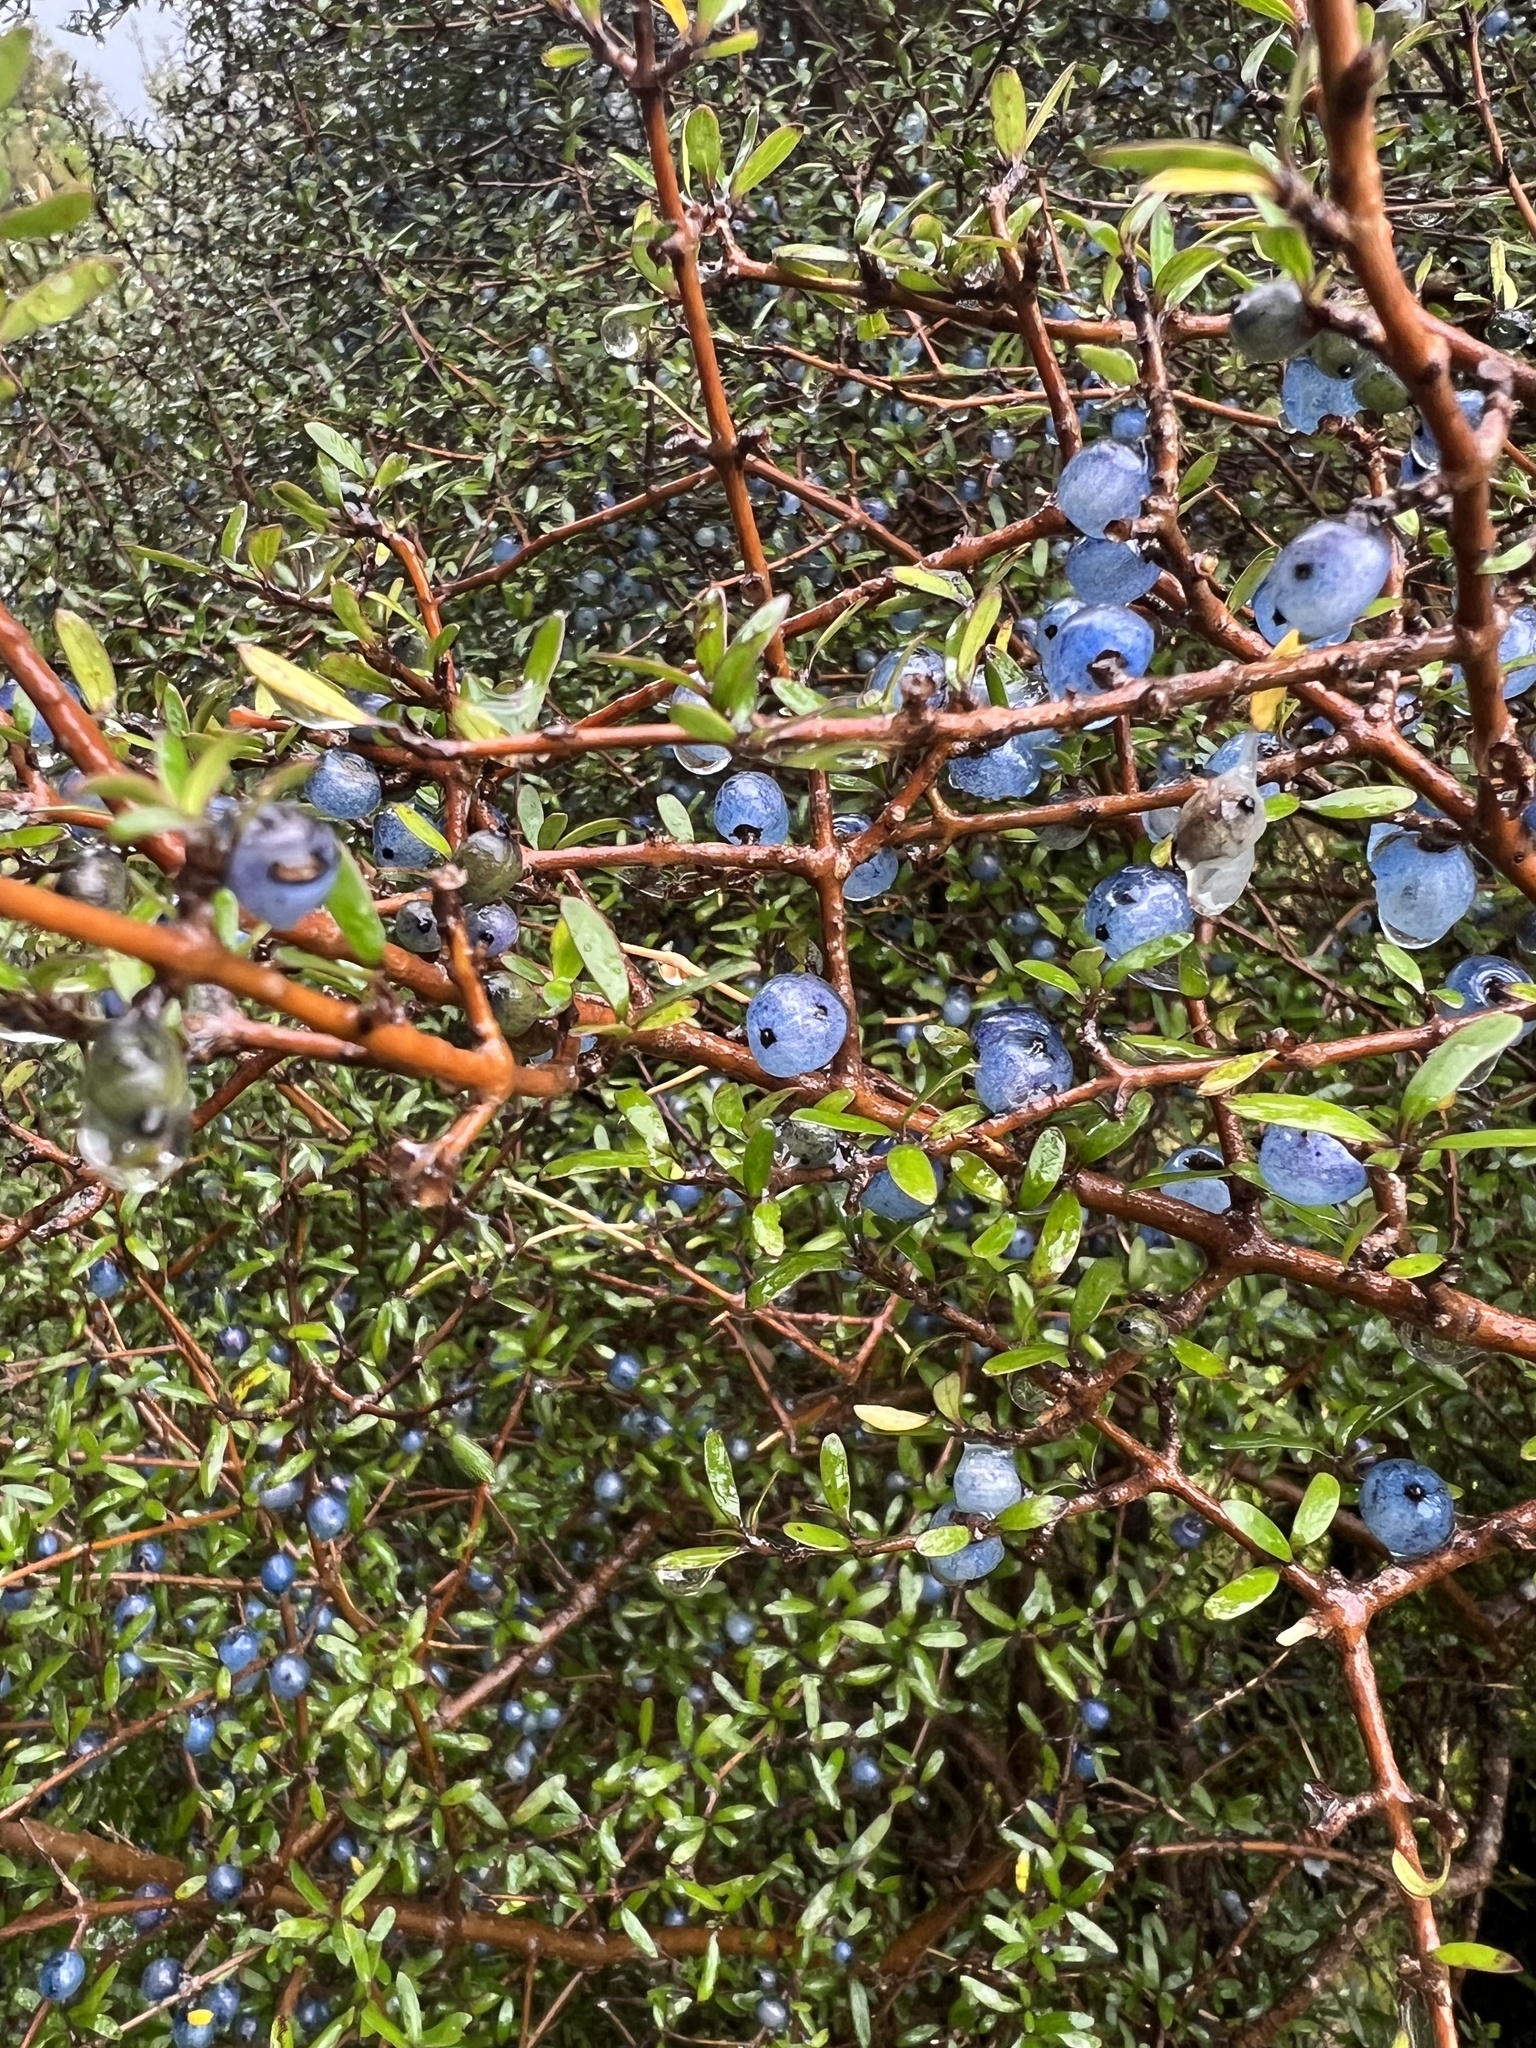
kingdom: Plantae
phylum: Tracheophyta
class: Magnoliopsida
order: Gentianales
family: Rubiaceae
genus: Coprosma
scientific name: Coprosma propinqua
